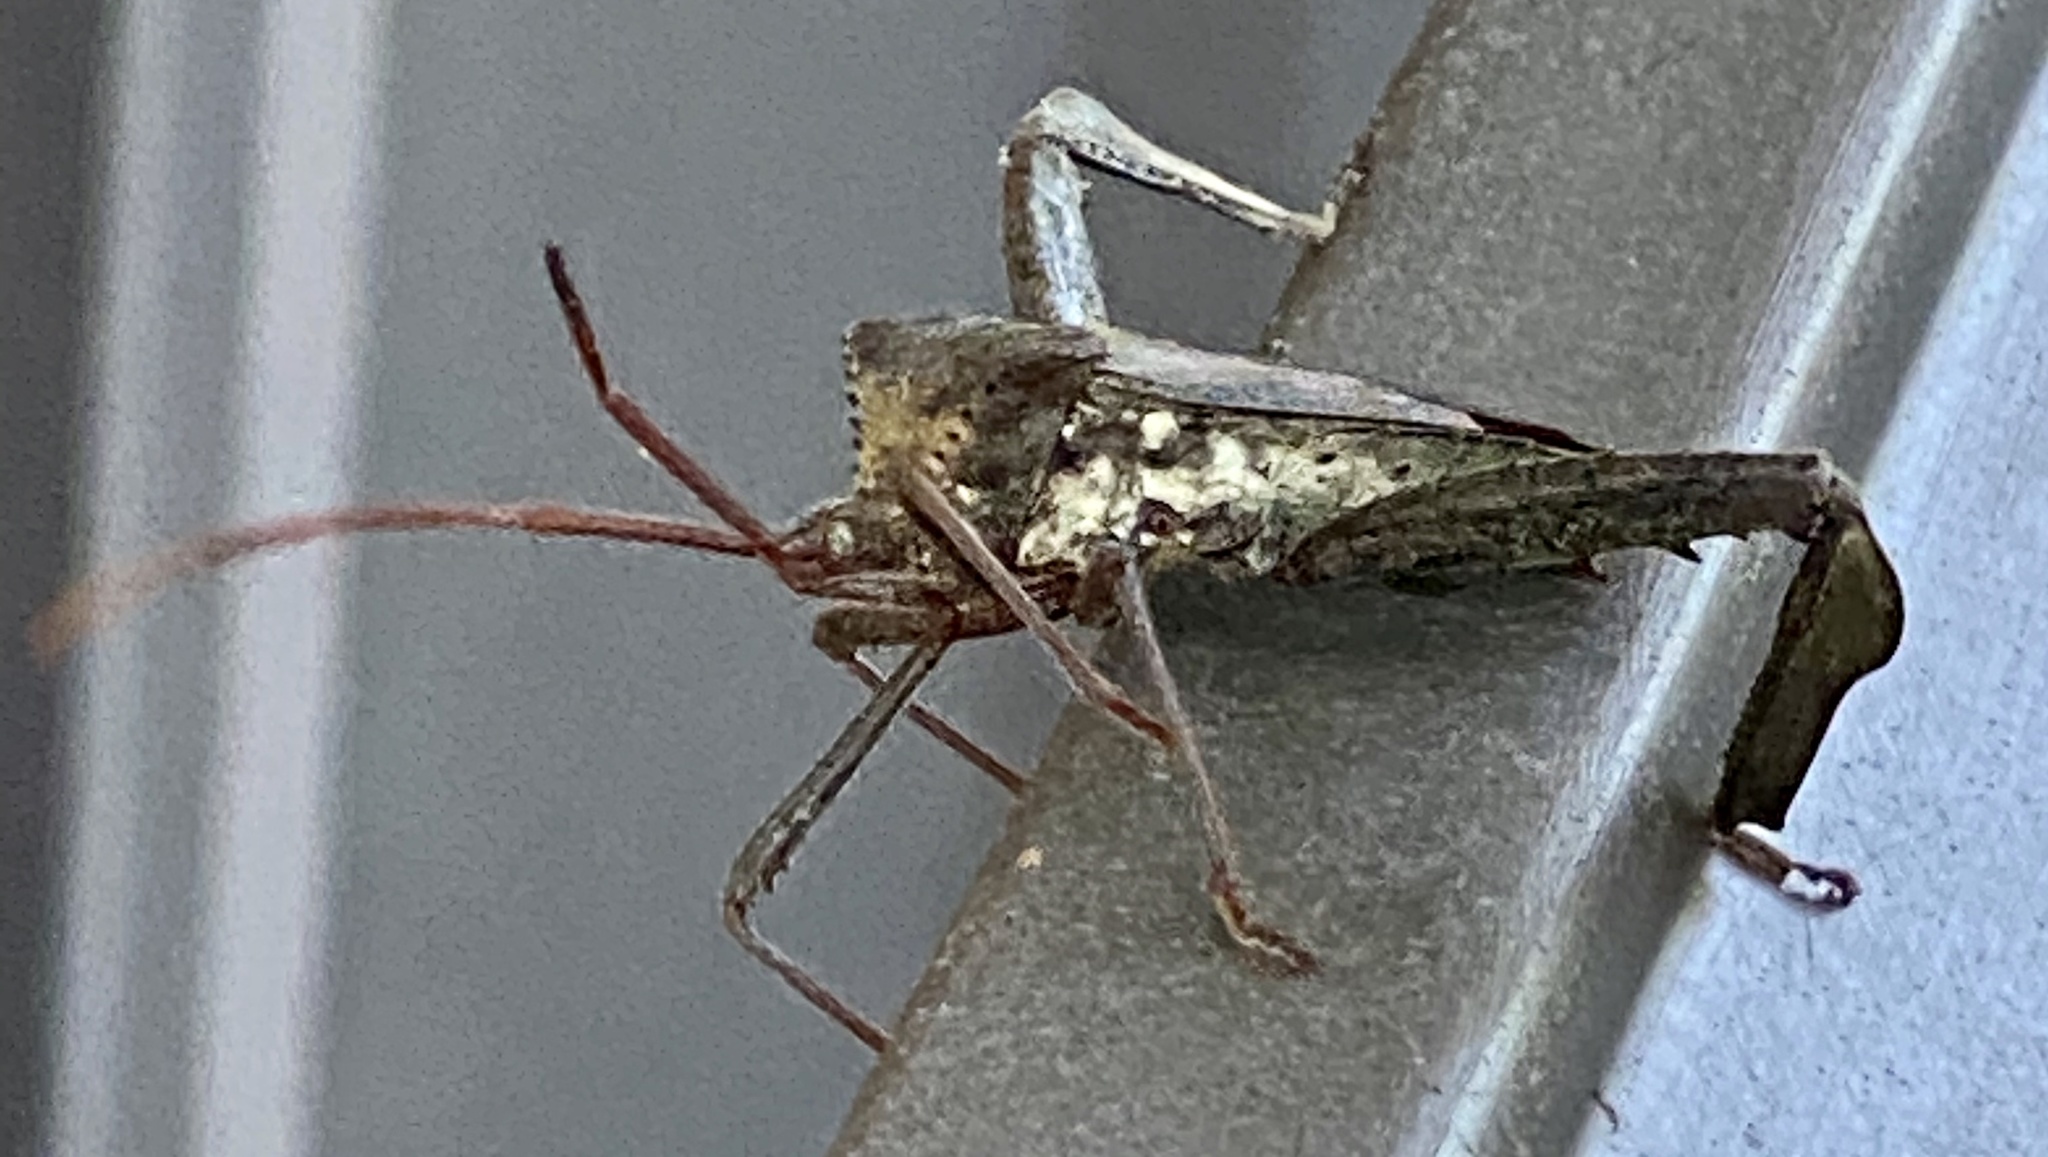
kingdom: Animalia
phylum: Arthropoda
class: Insecta
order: Hemiptera
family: Coreidae
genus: Acanthocephala
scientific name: Acanthocephala declivis
